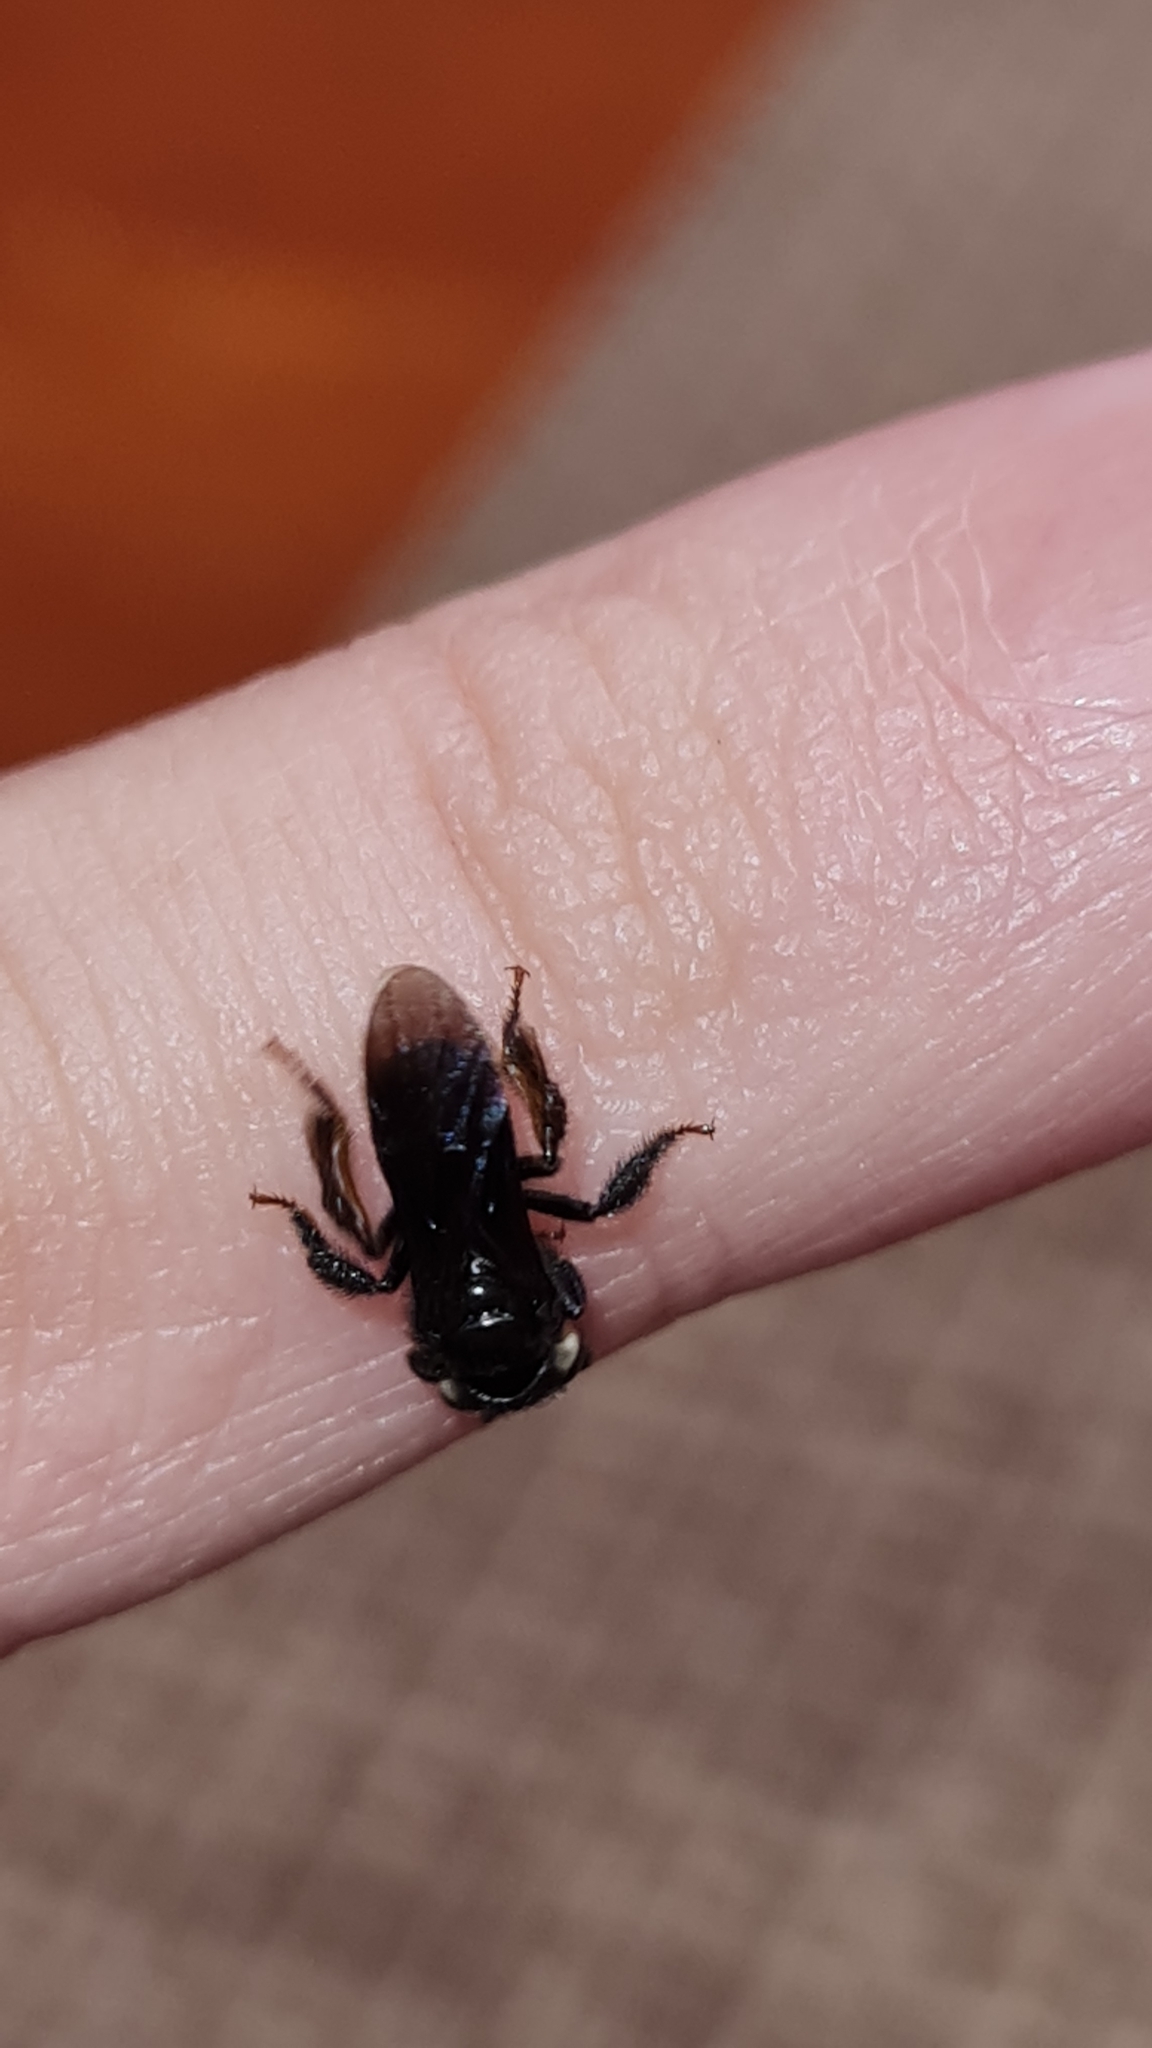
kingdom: Animalia
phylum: Arthropoda
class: Insecta
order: Hymenoptera
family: Apidae
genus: Trigona
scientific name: Trigona spinipes
